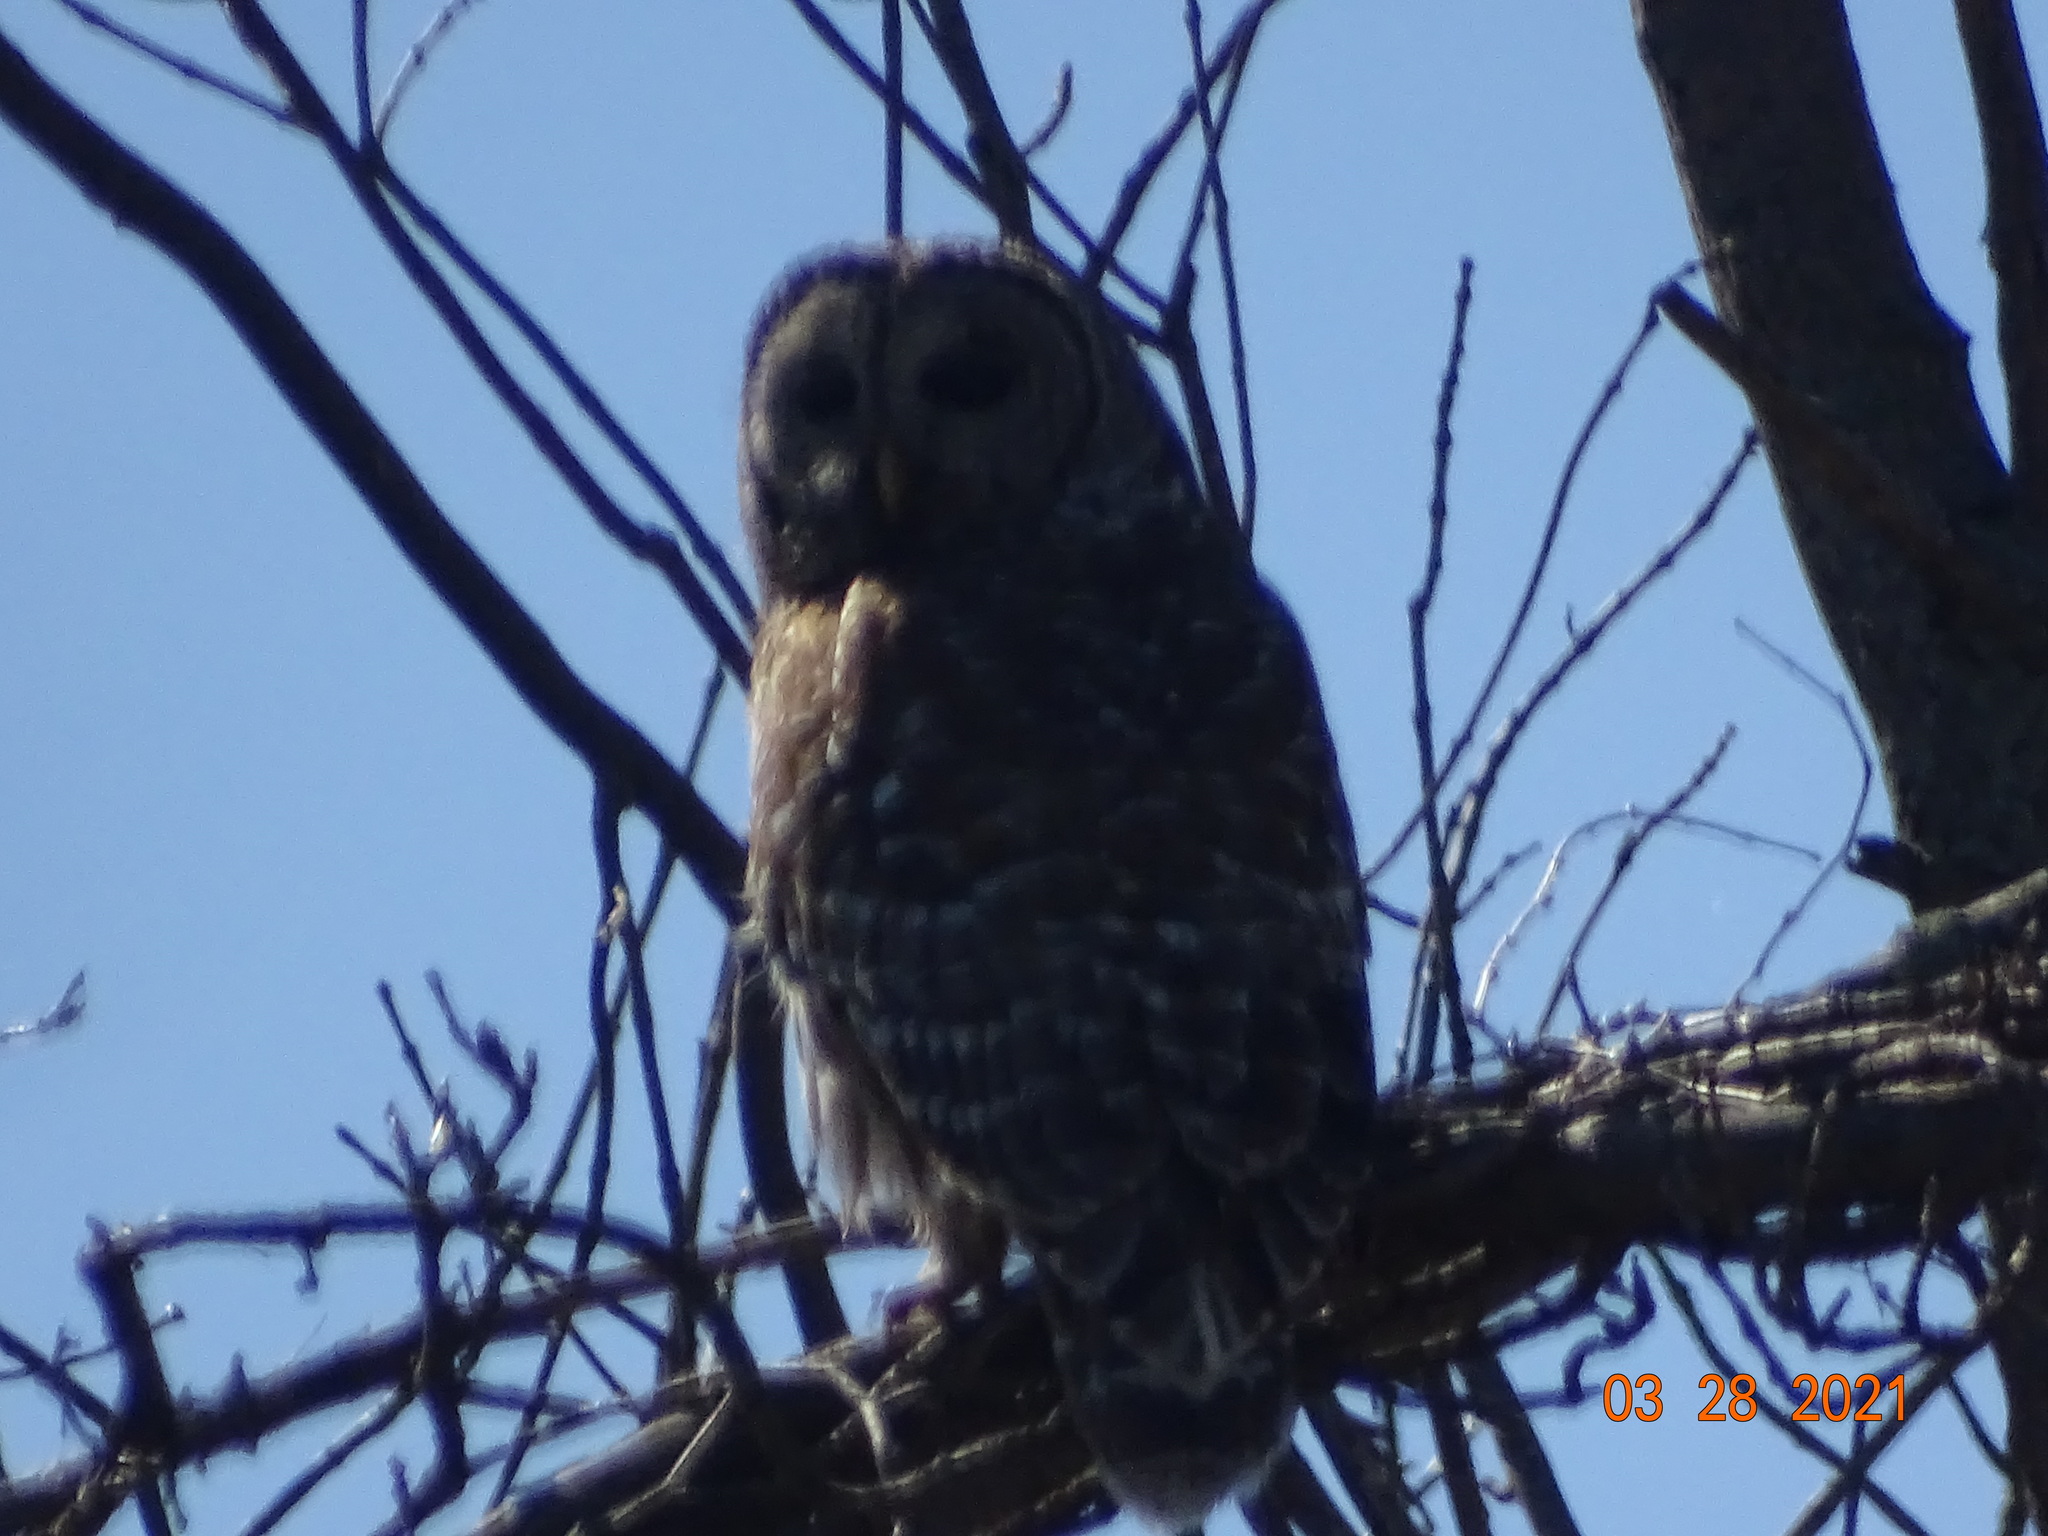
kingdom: Animalia
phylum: Chordata
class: Aves
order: Strigiformes
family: Strigidae
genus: Strix
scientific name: Strix varia
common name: Barred owl
